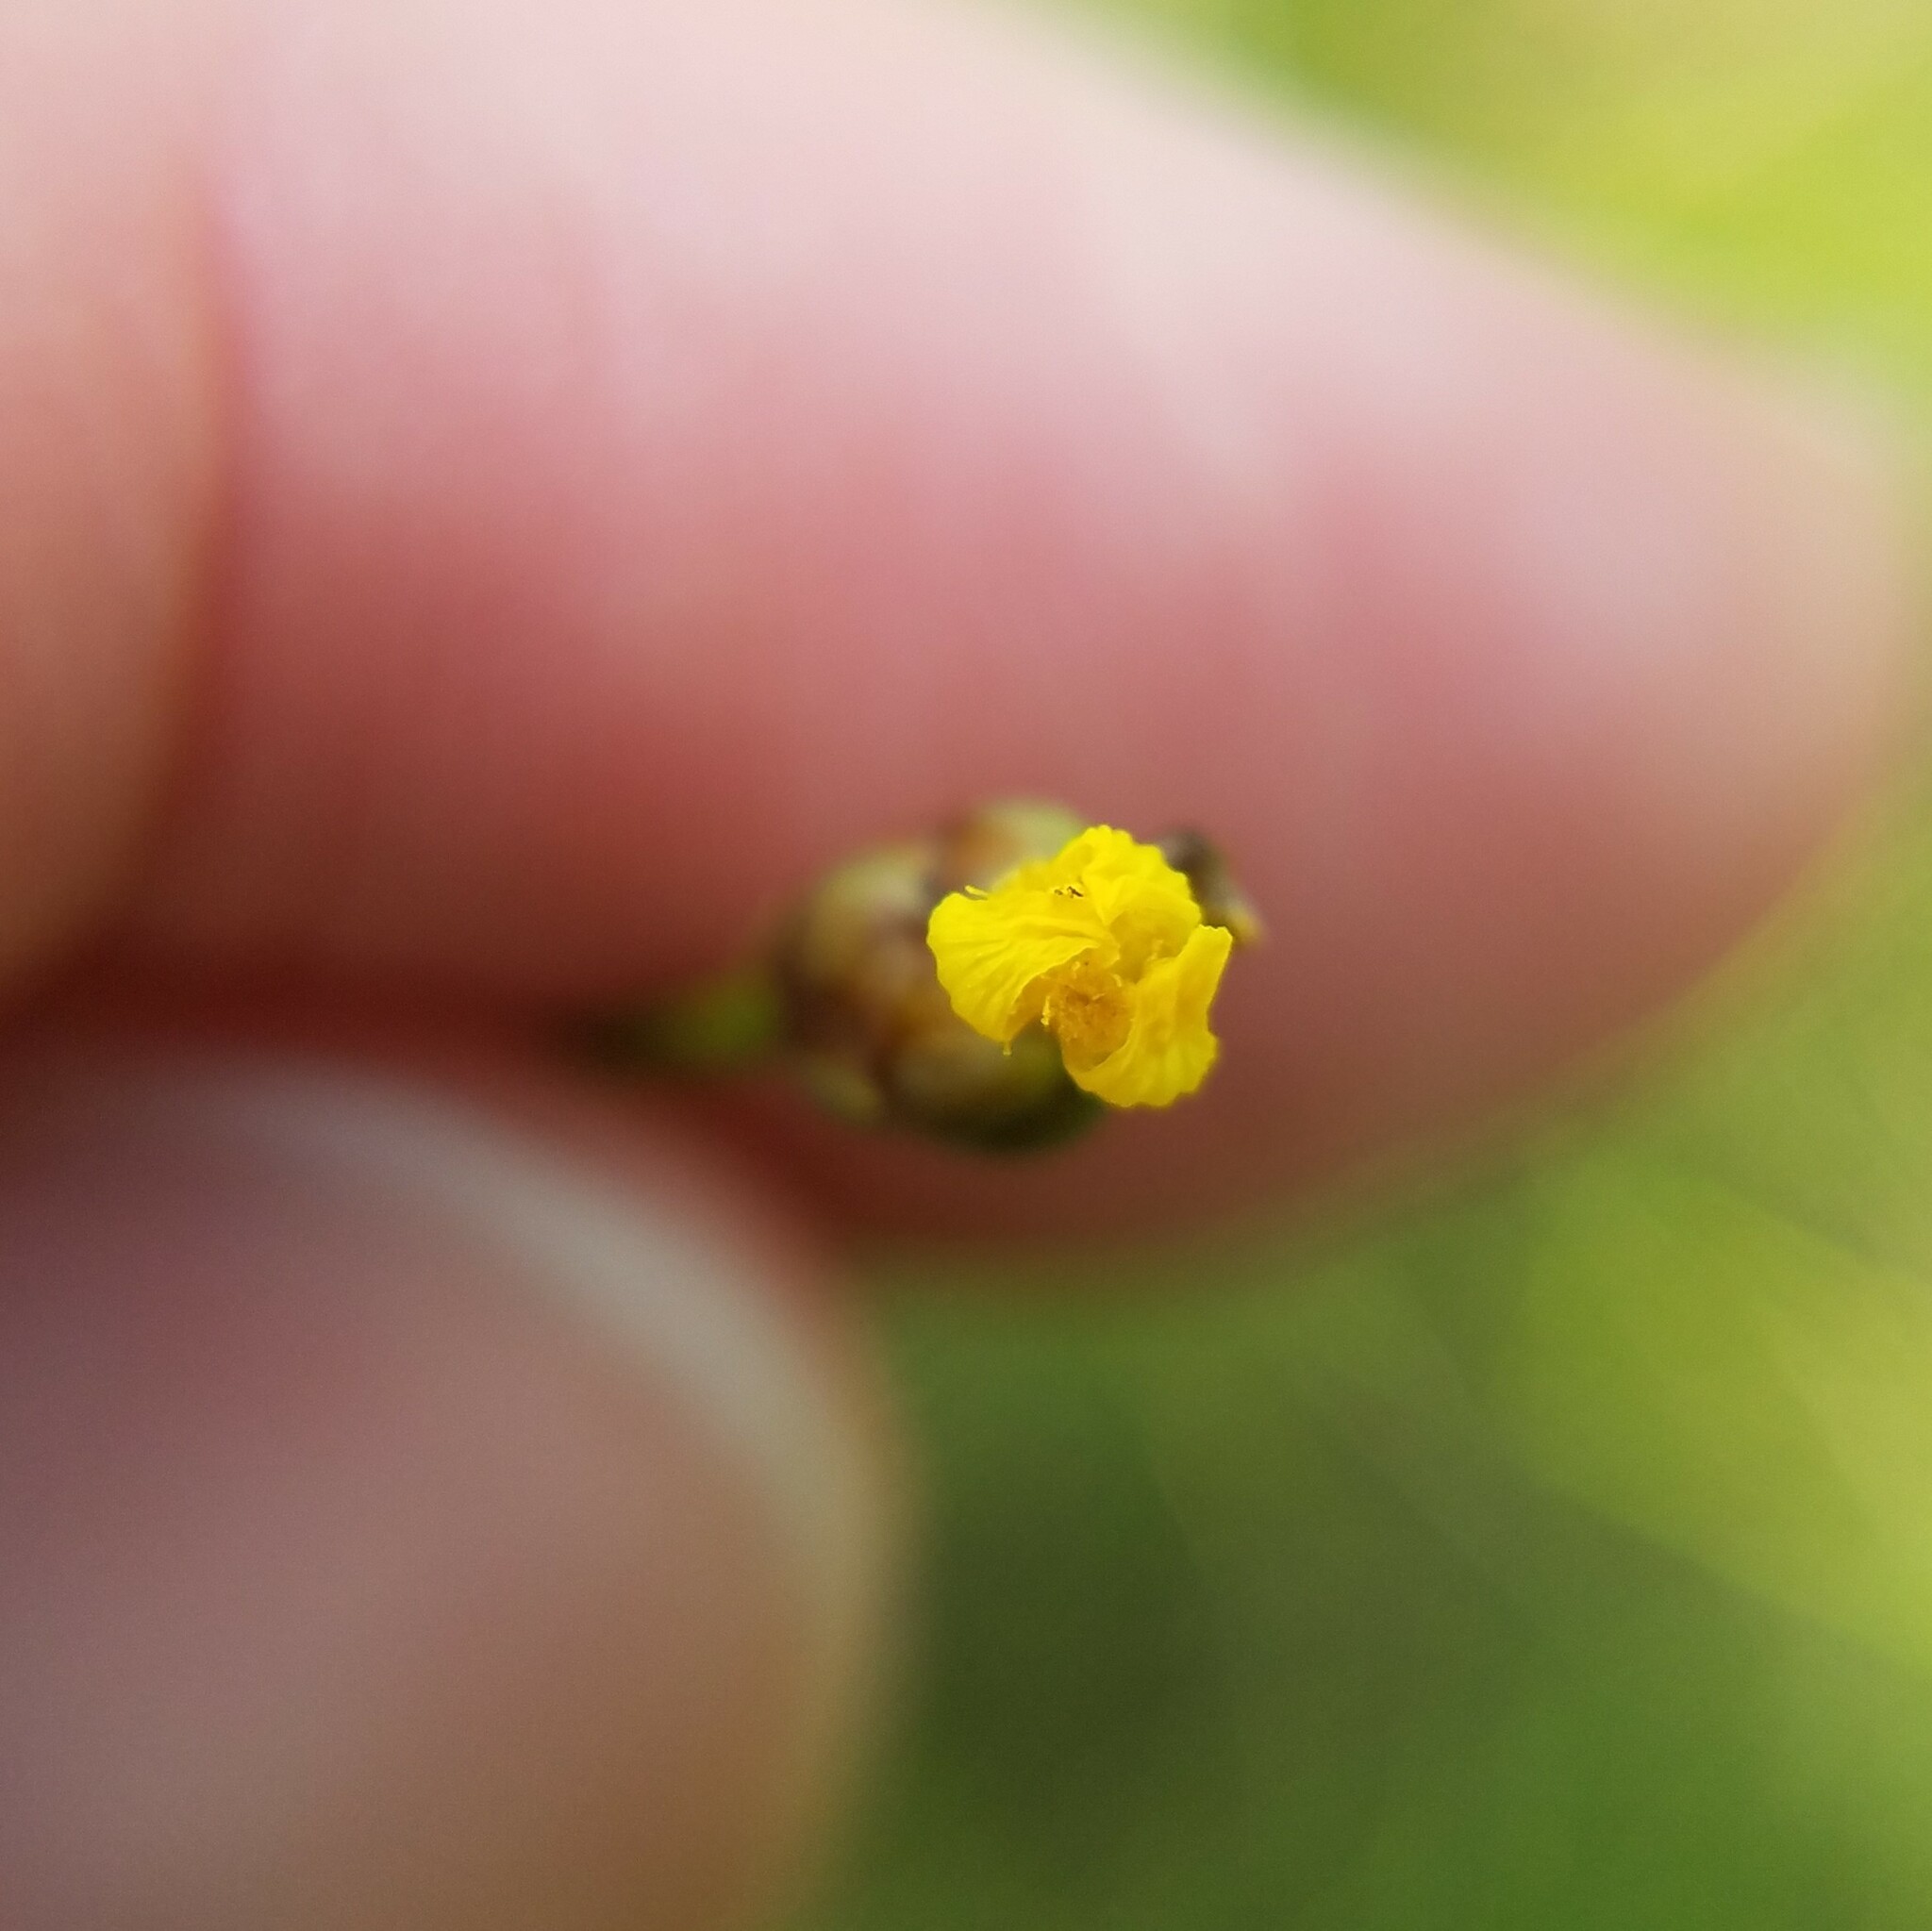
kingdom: Plantae
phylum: Tracheophyta
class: Liliopsida
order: Poales
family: Xyridaceae
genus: Xyris
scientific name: Xyris jupicai
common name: Richard's yelloweyed grass
